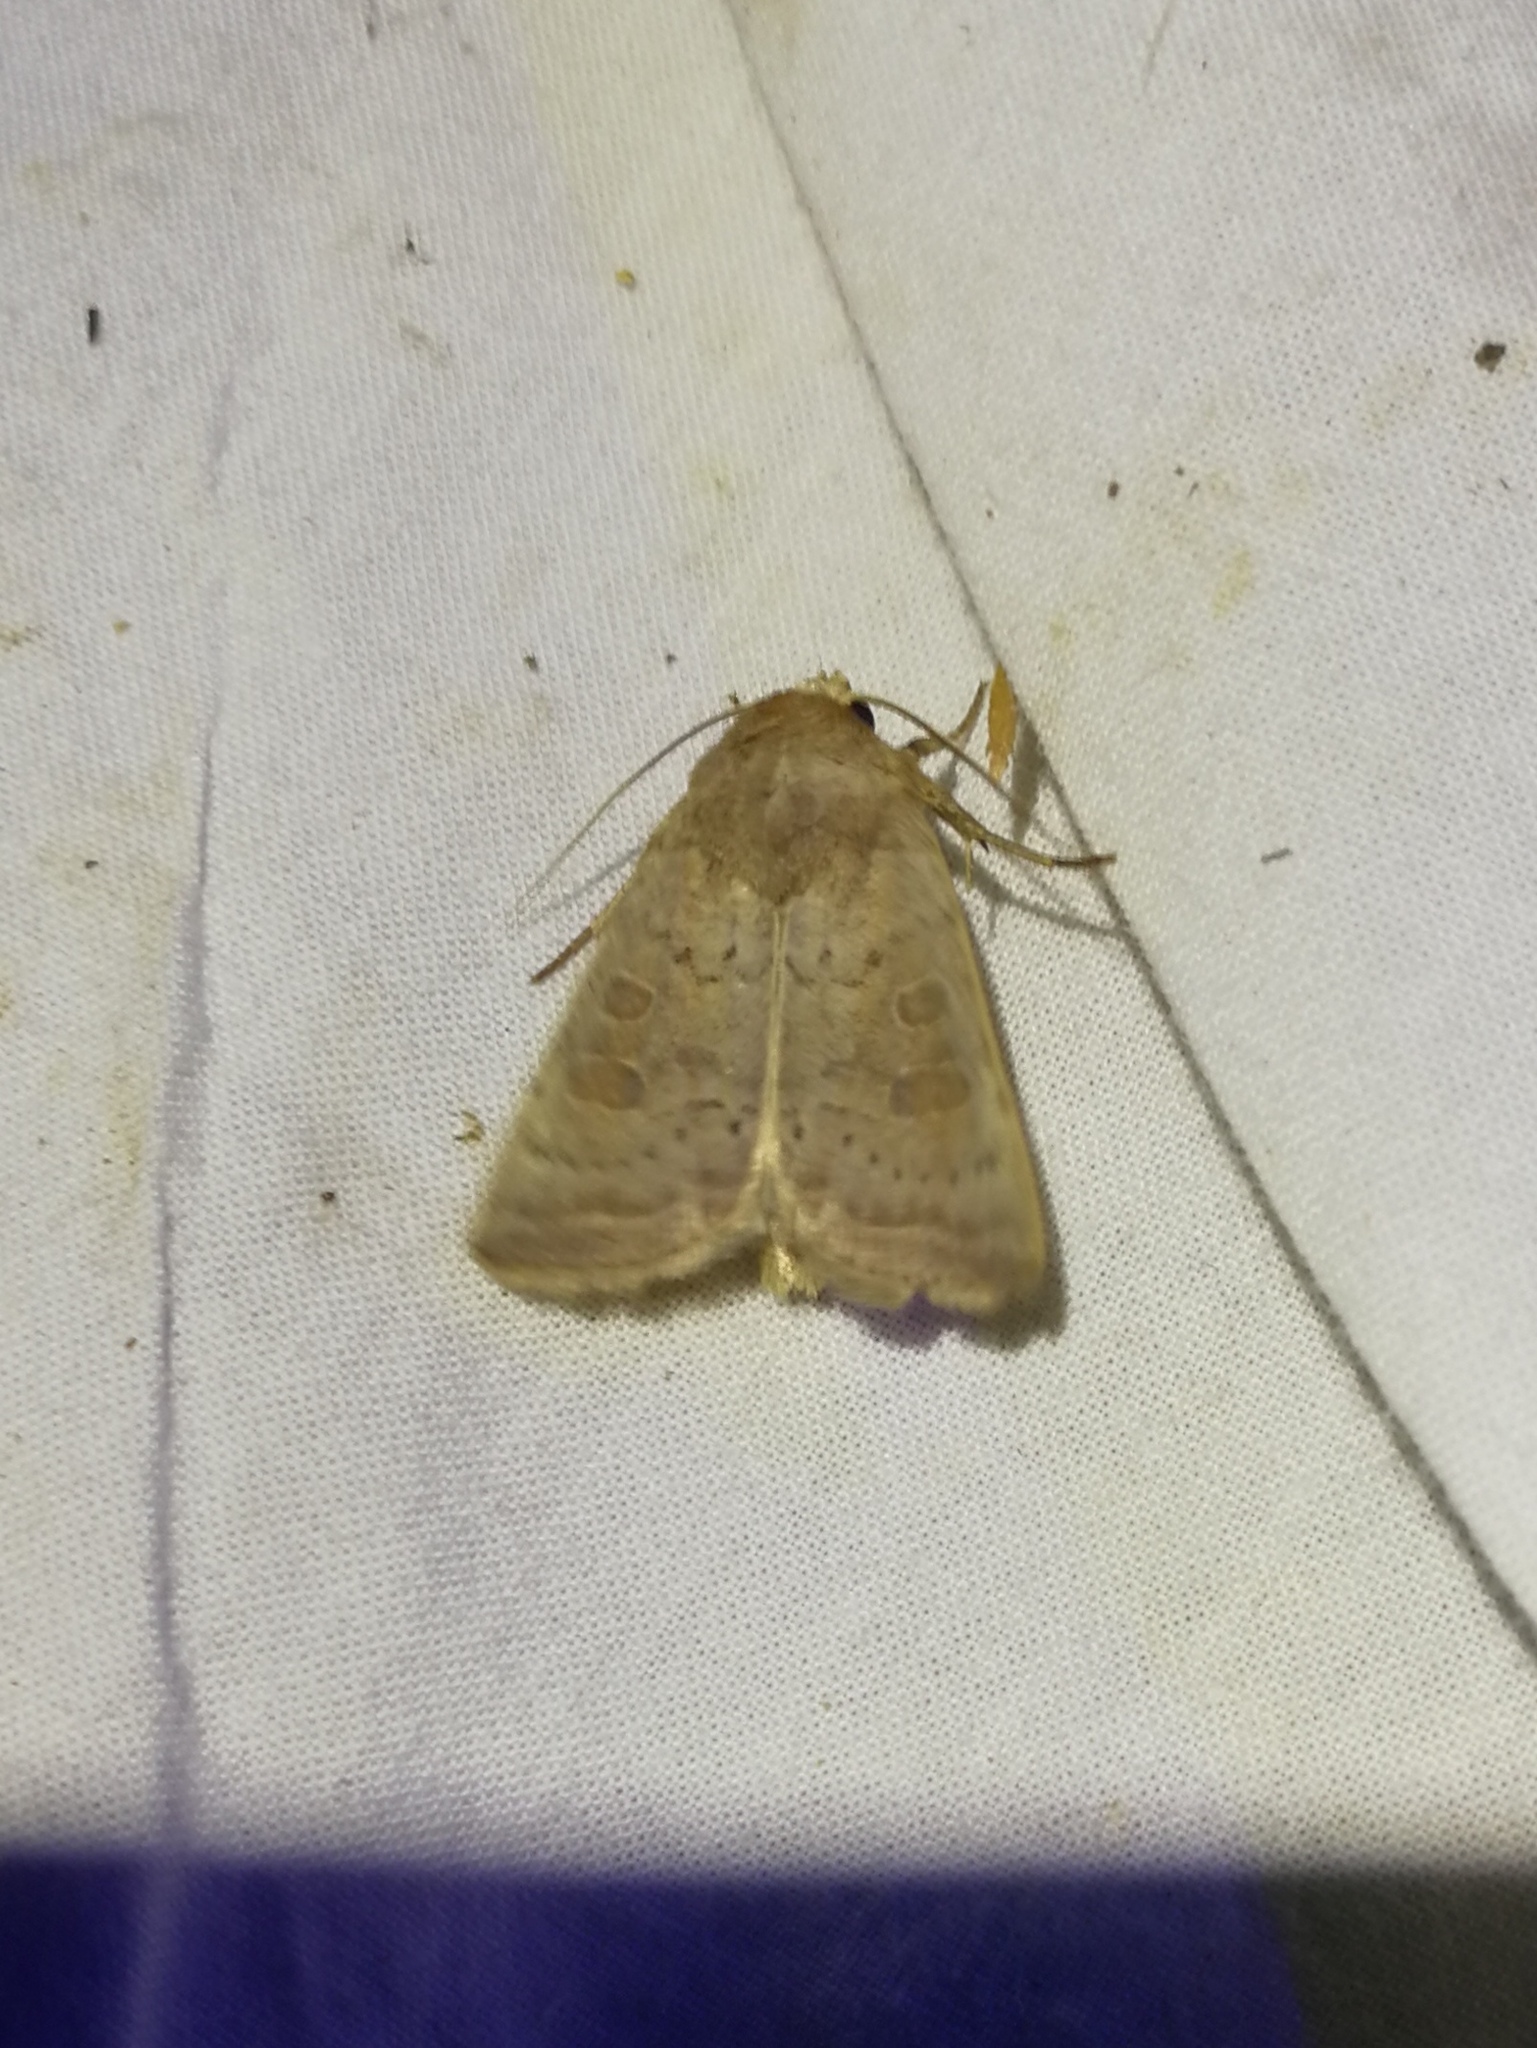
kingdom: Animalia
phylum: Arthropoda
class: Insecta
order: Lepidoptera
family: Noctuidae
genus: Hoplodrina
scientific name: Hoplodrina ambigua
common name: Vine's rustic
